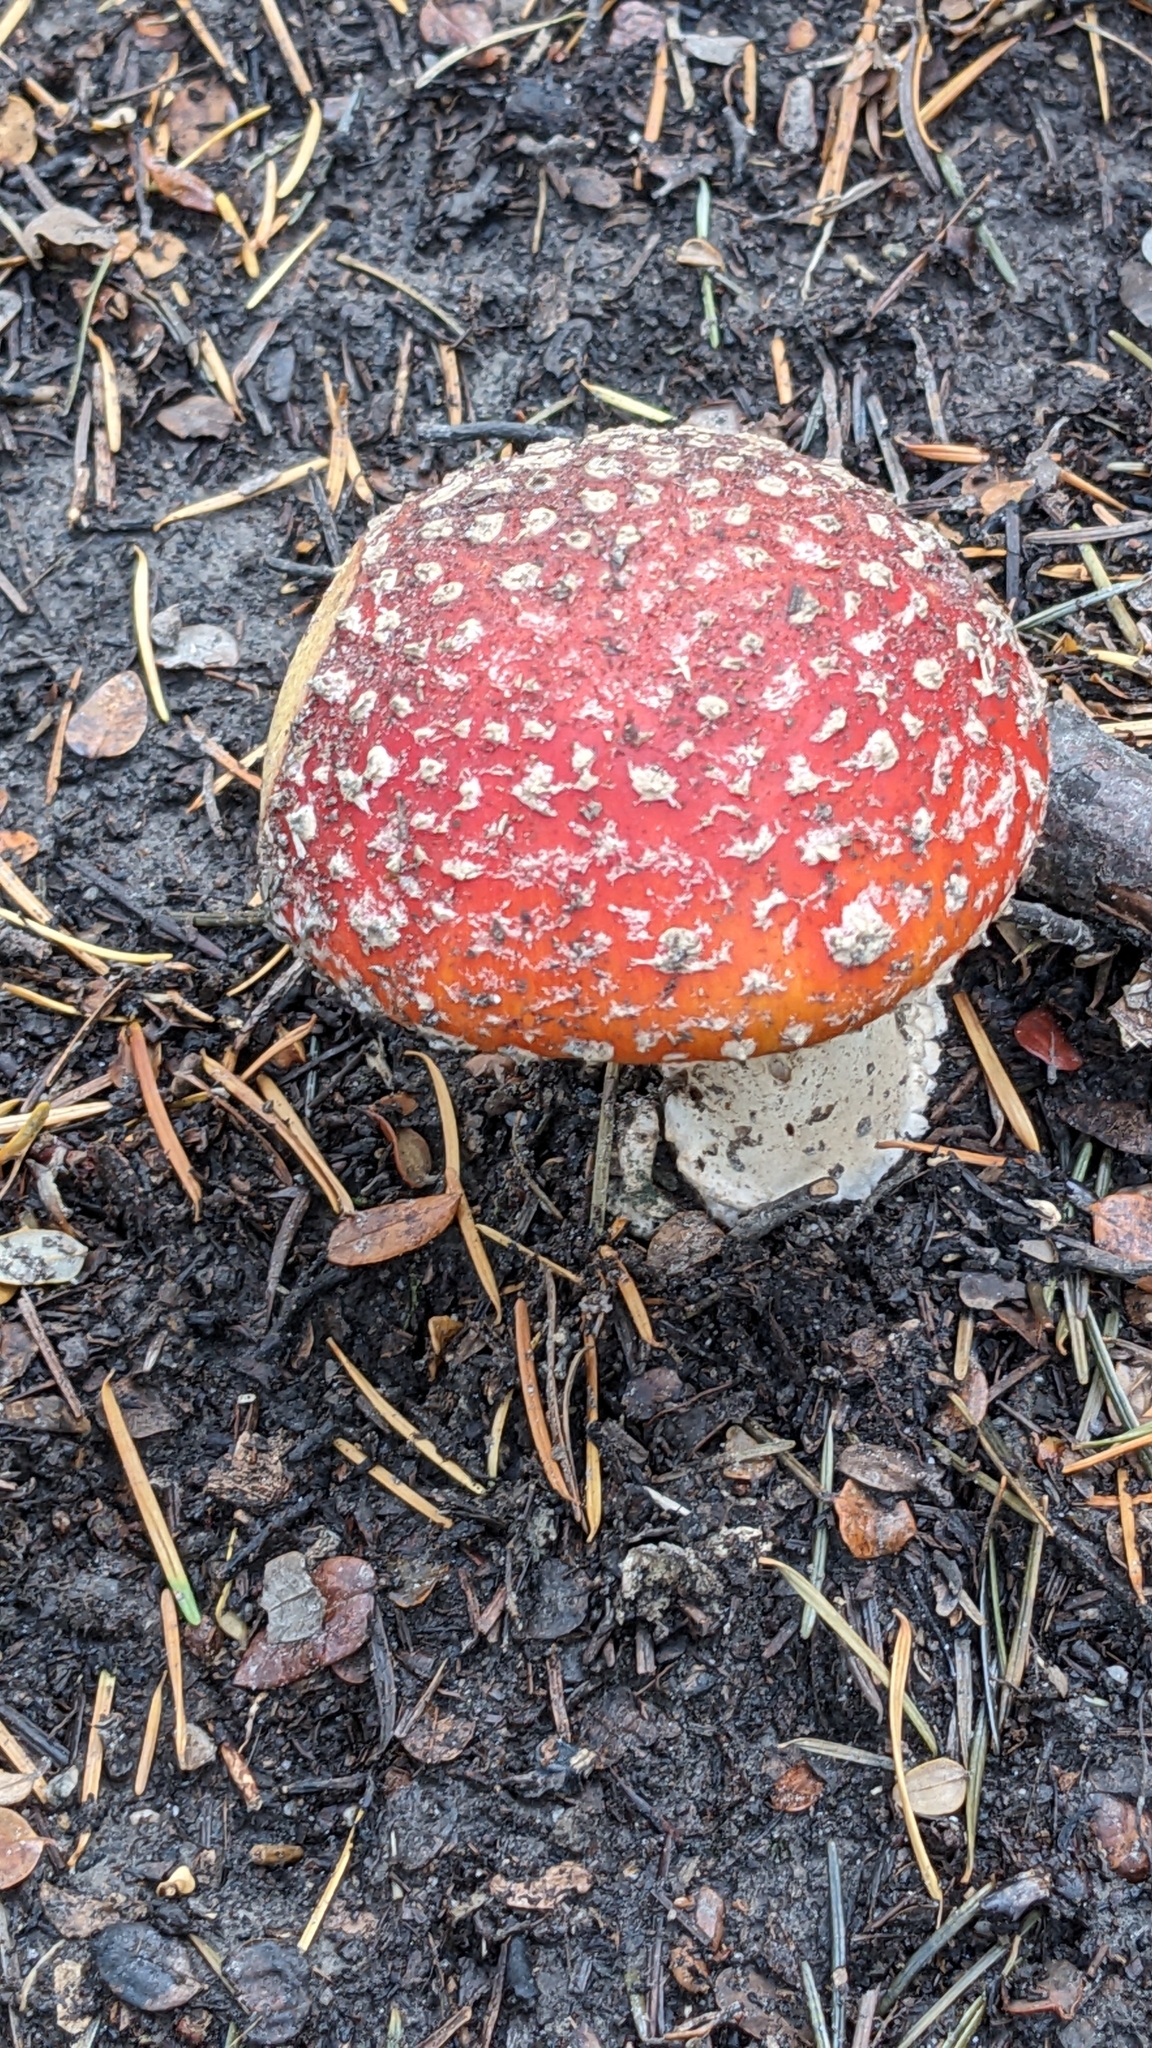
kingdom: Fungi
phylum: Basidiomycota
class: Agaricomycetes
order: Agaricales
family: Amanitaceae
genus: Amanita
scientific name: Amanita muscaria
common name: Fly agaric
